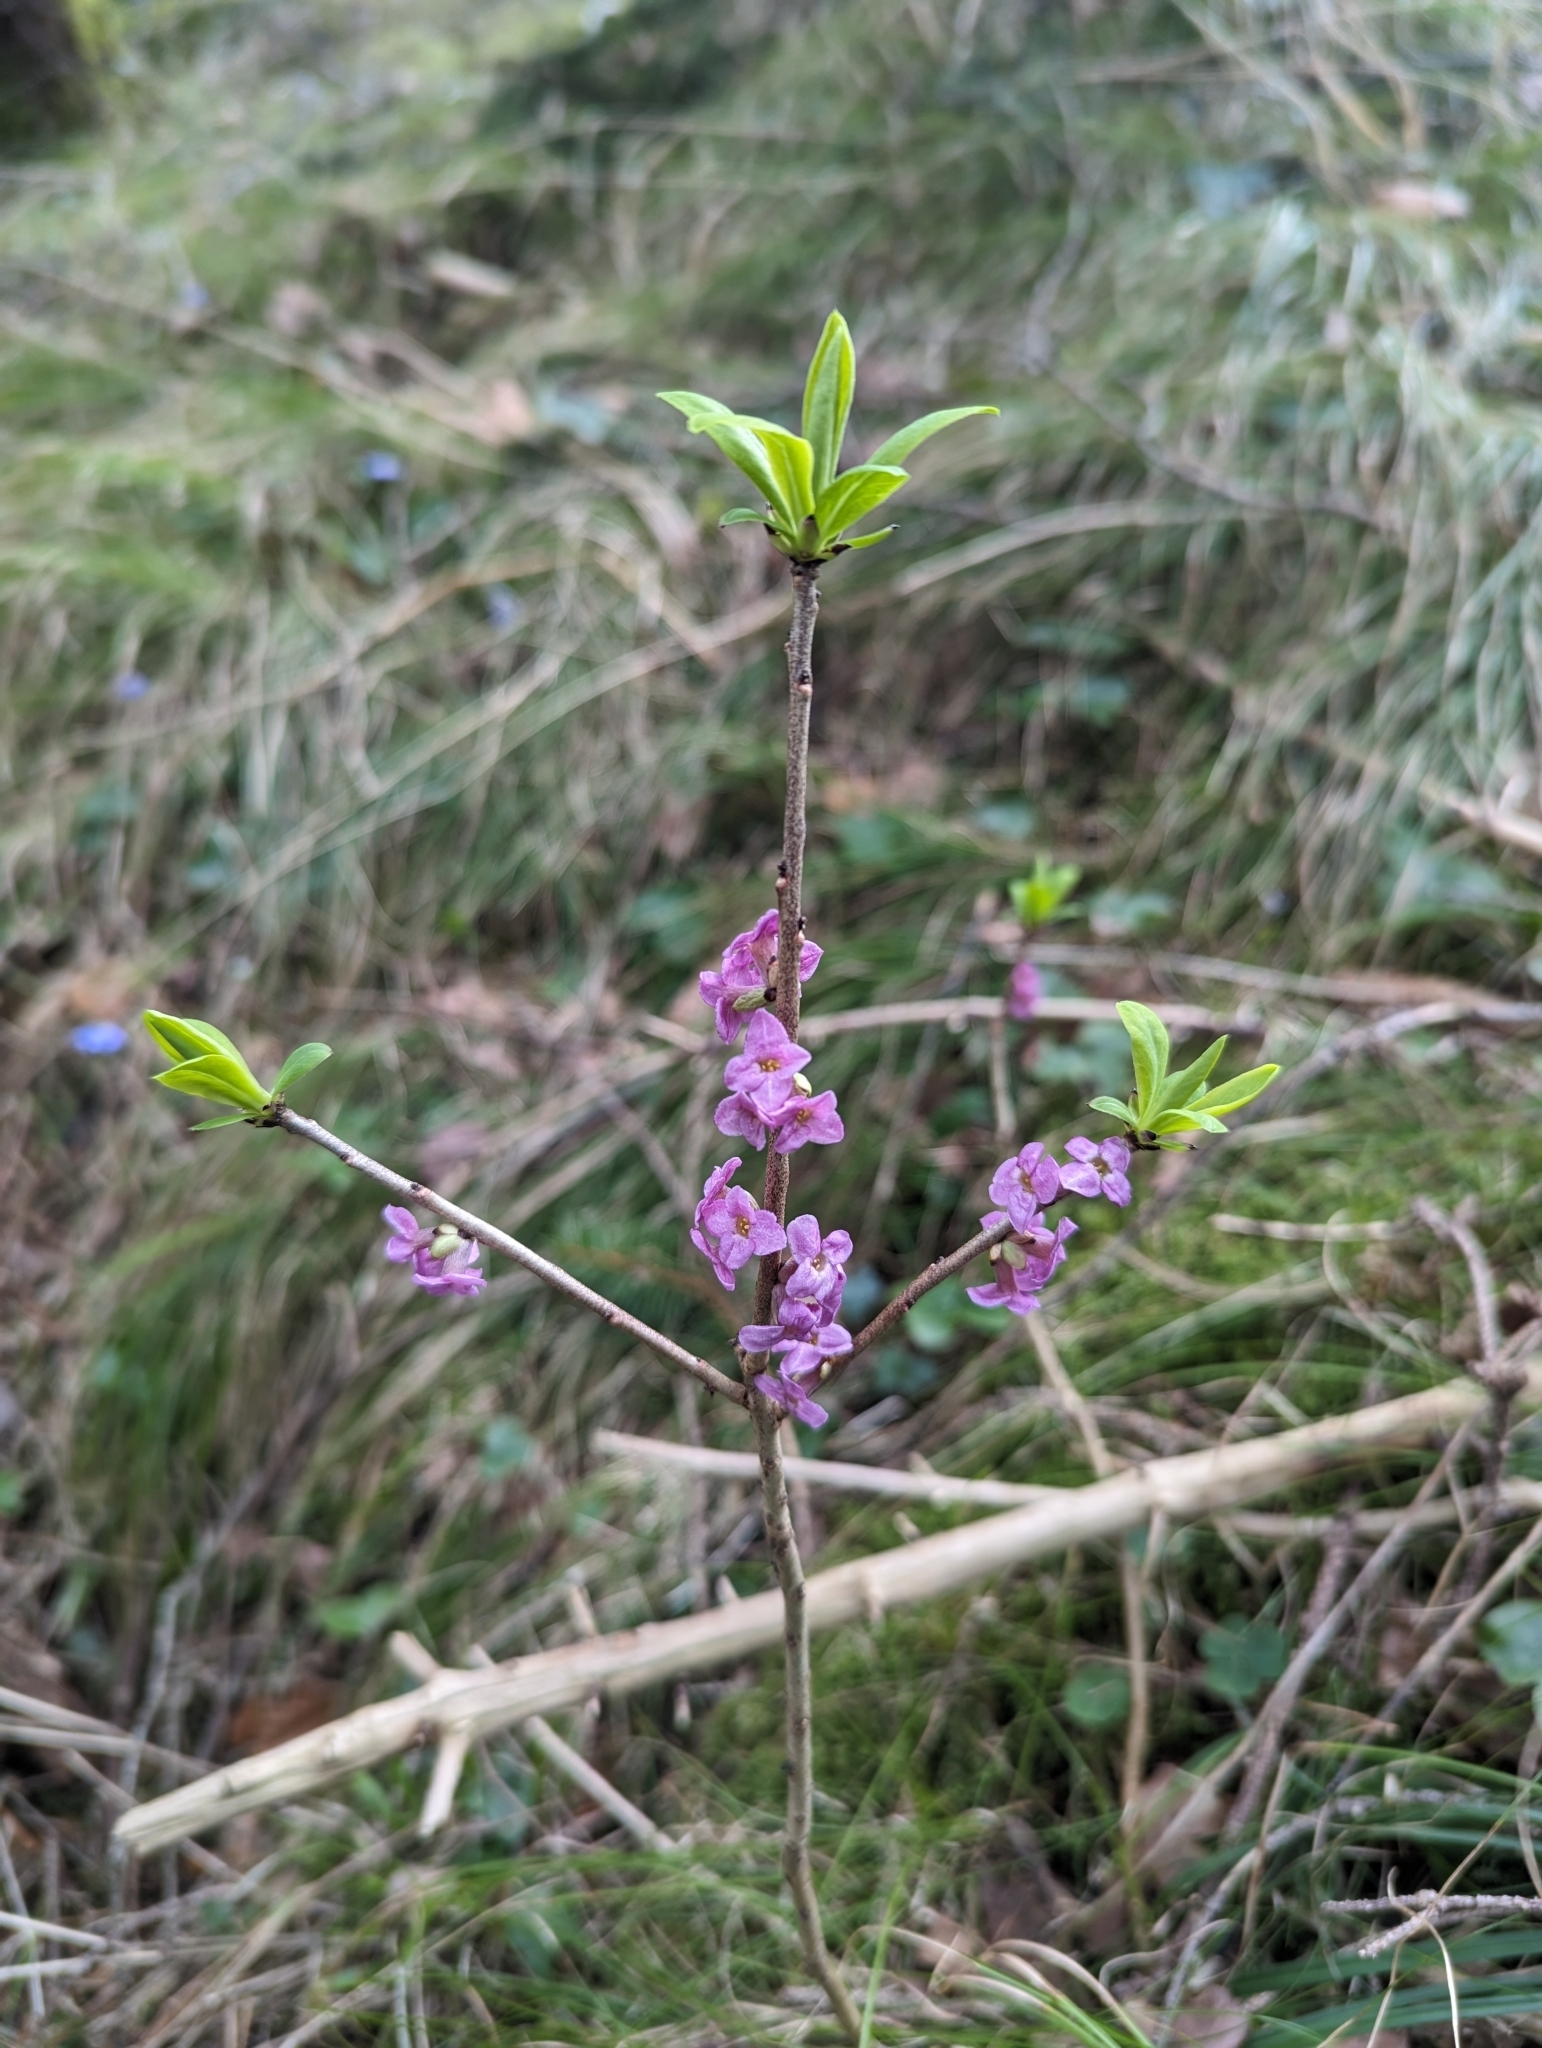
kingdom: Plantae
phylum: Tracheophyta
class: Magnoliopsida
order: Malvales
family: Thymelaeaceae
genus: Daphne
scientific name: Daphne mezereum
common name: Mezereon
